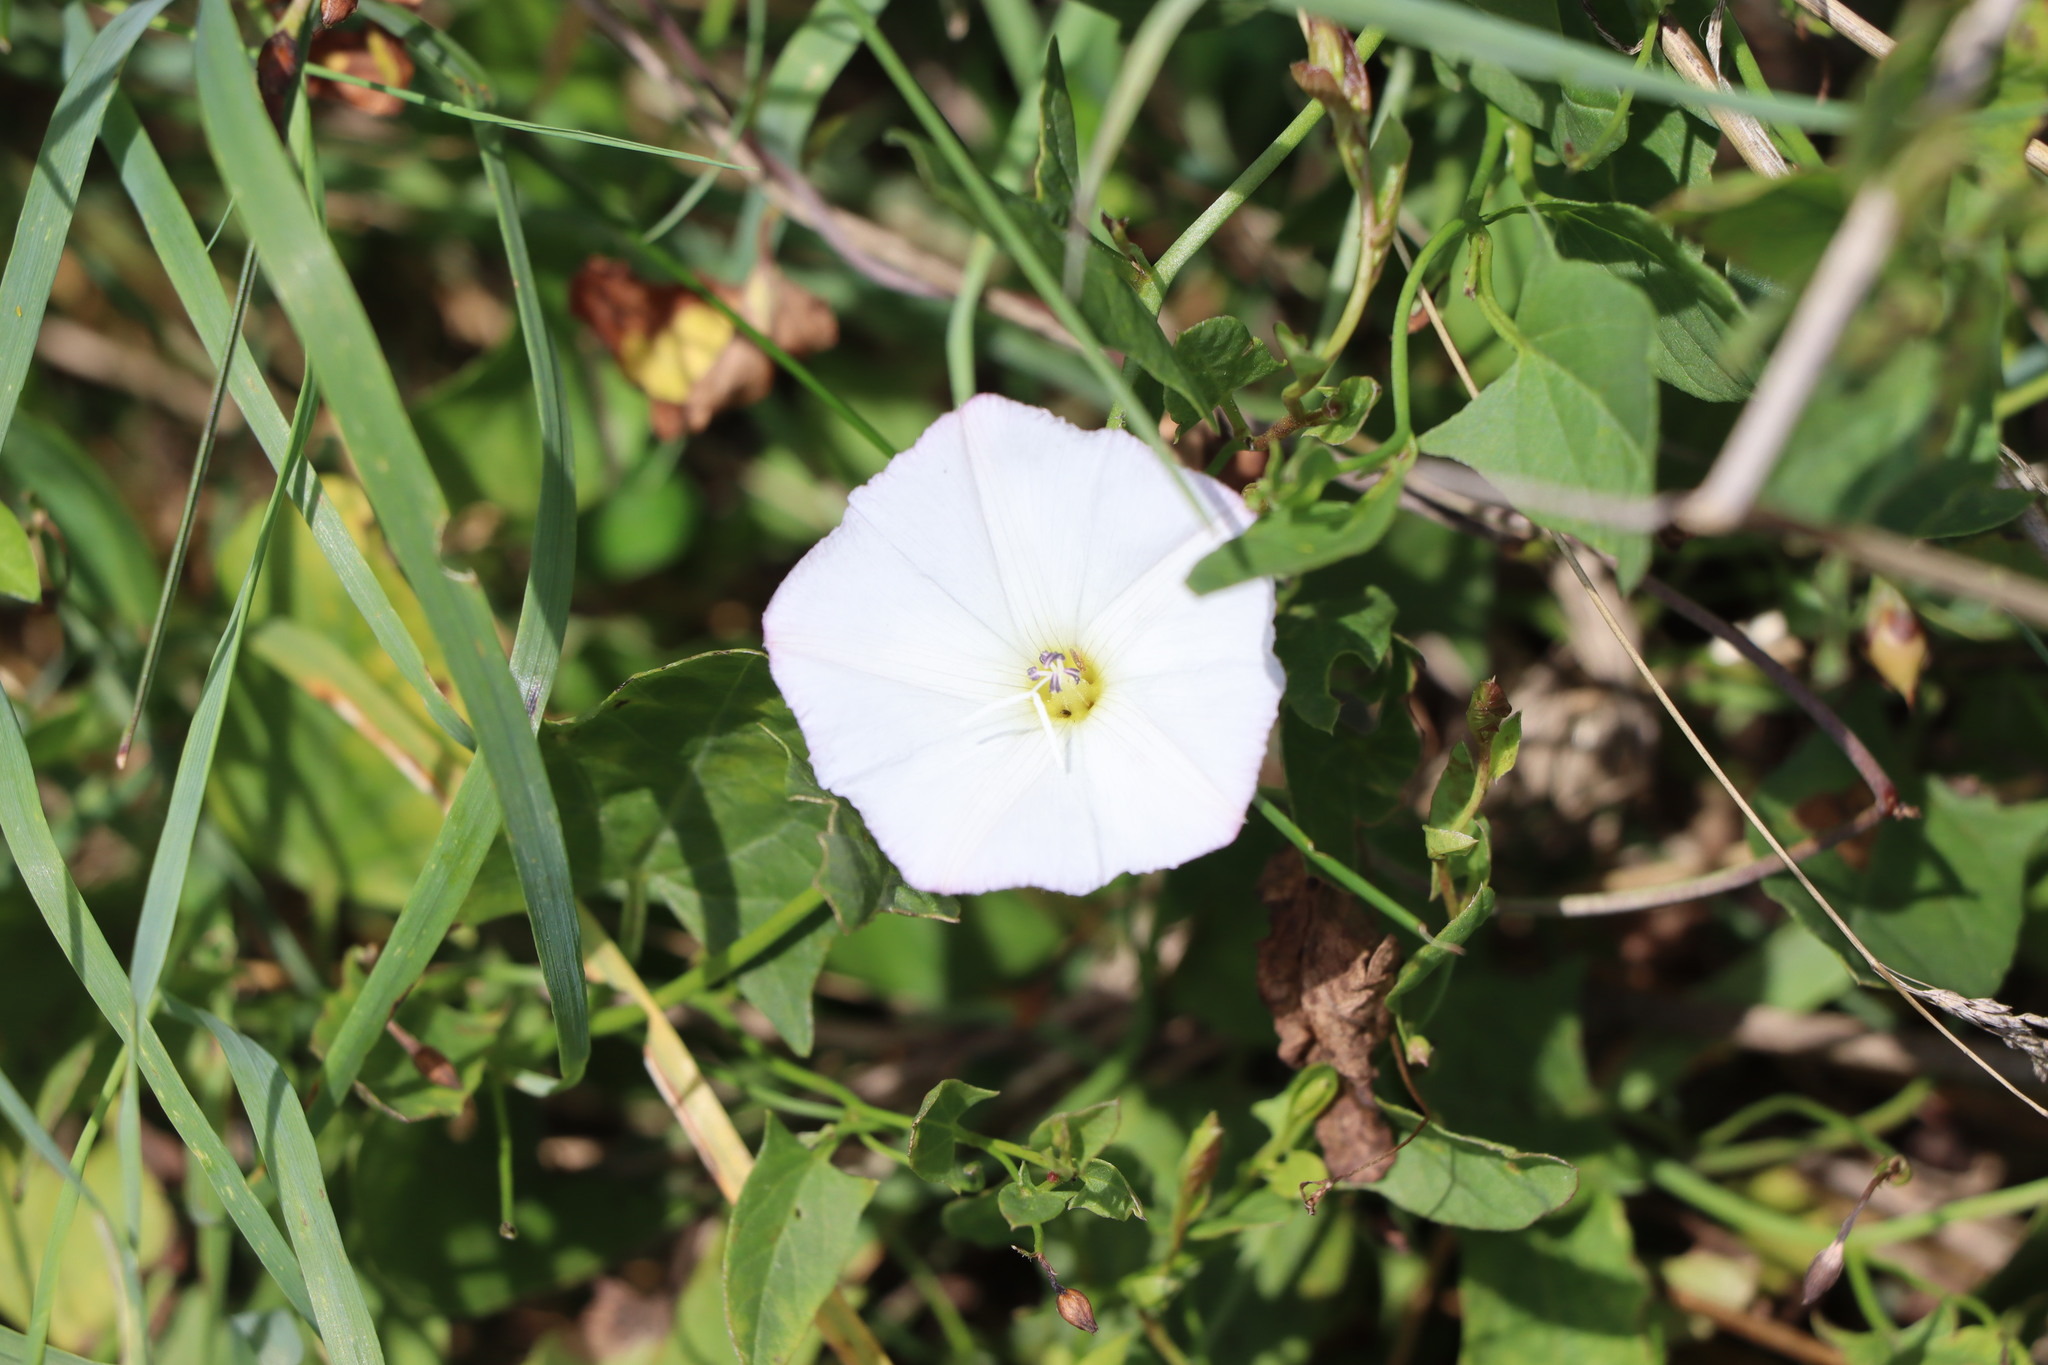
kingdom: Plantae
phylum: Tracheophyta
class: Magnoliopsida
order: Solanales
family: Convolvulaceae
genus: Convolvulus
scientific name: Convolvulus arvensis
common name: Field bindweed
